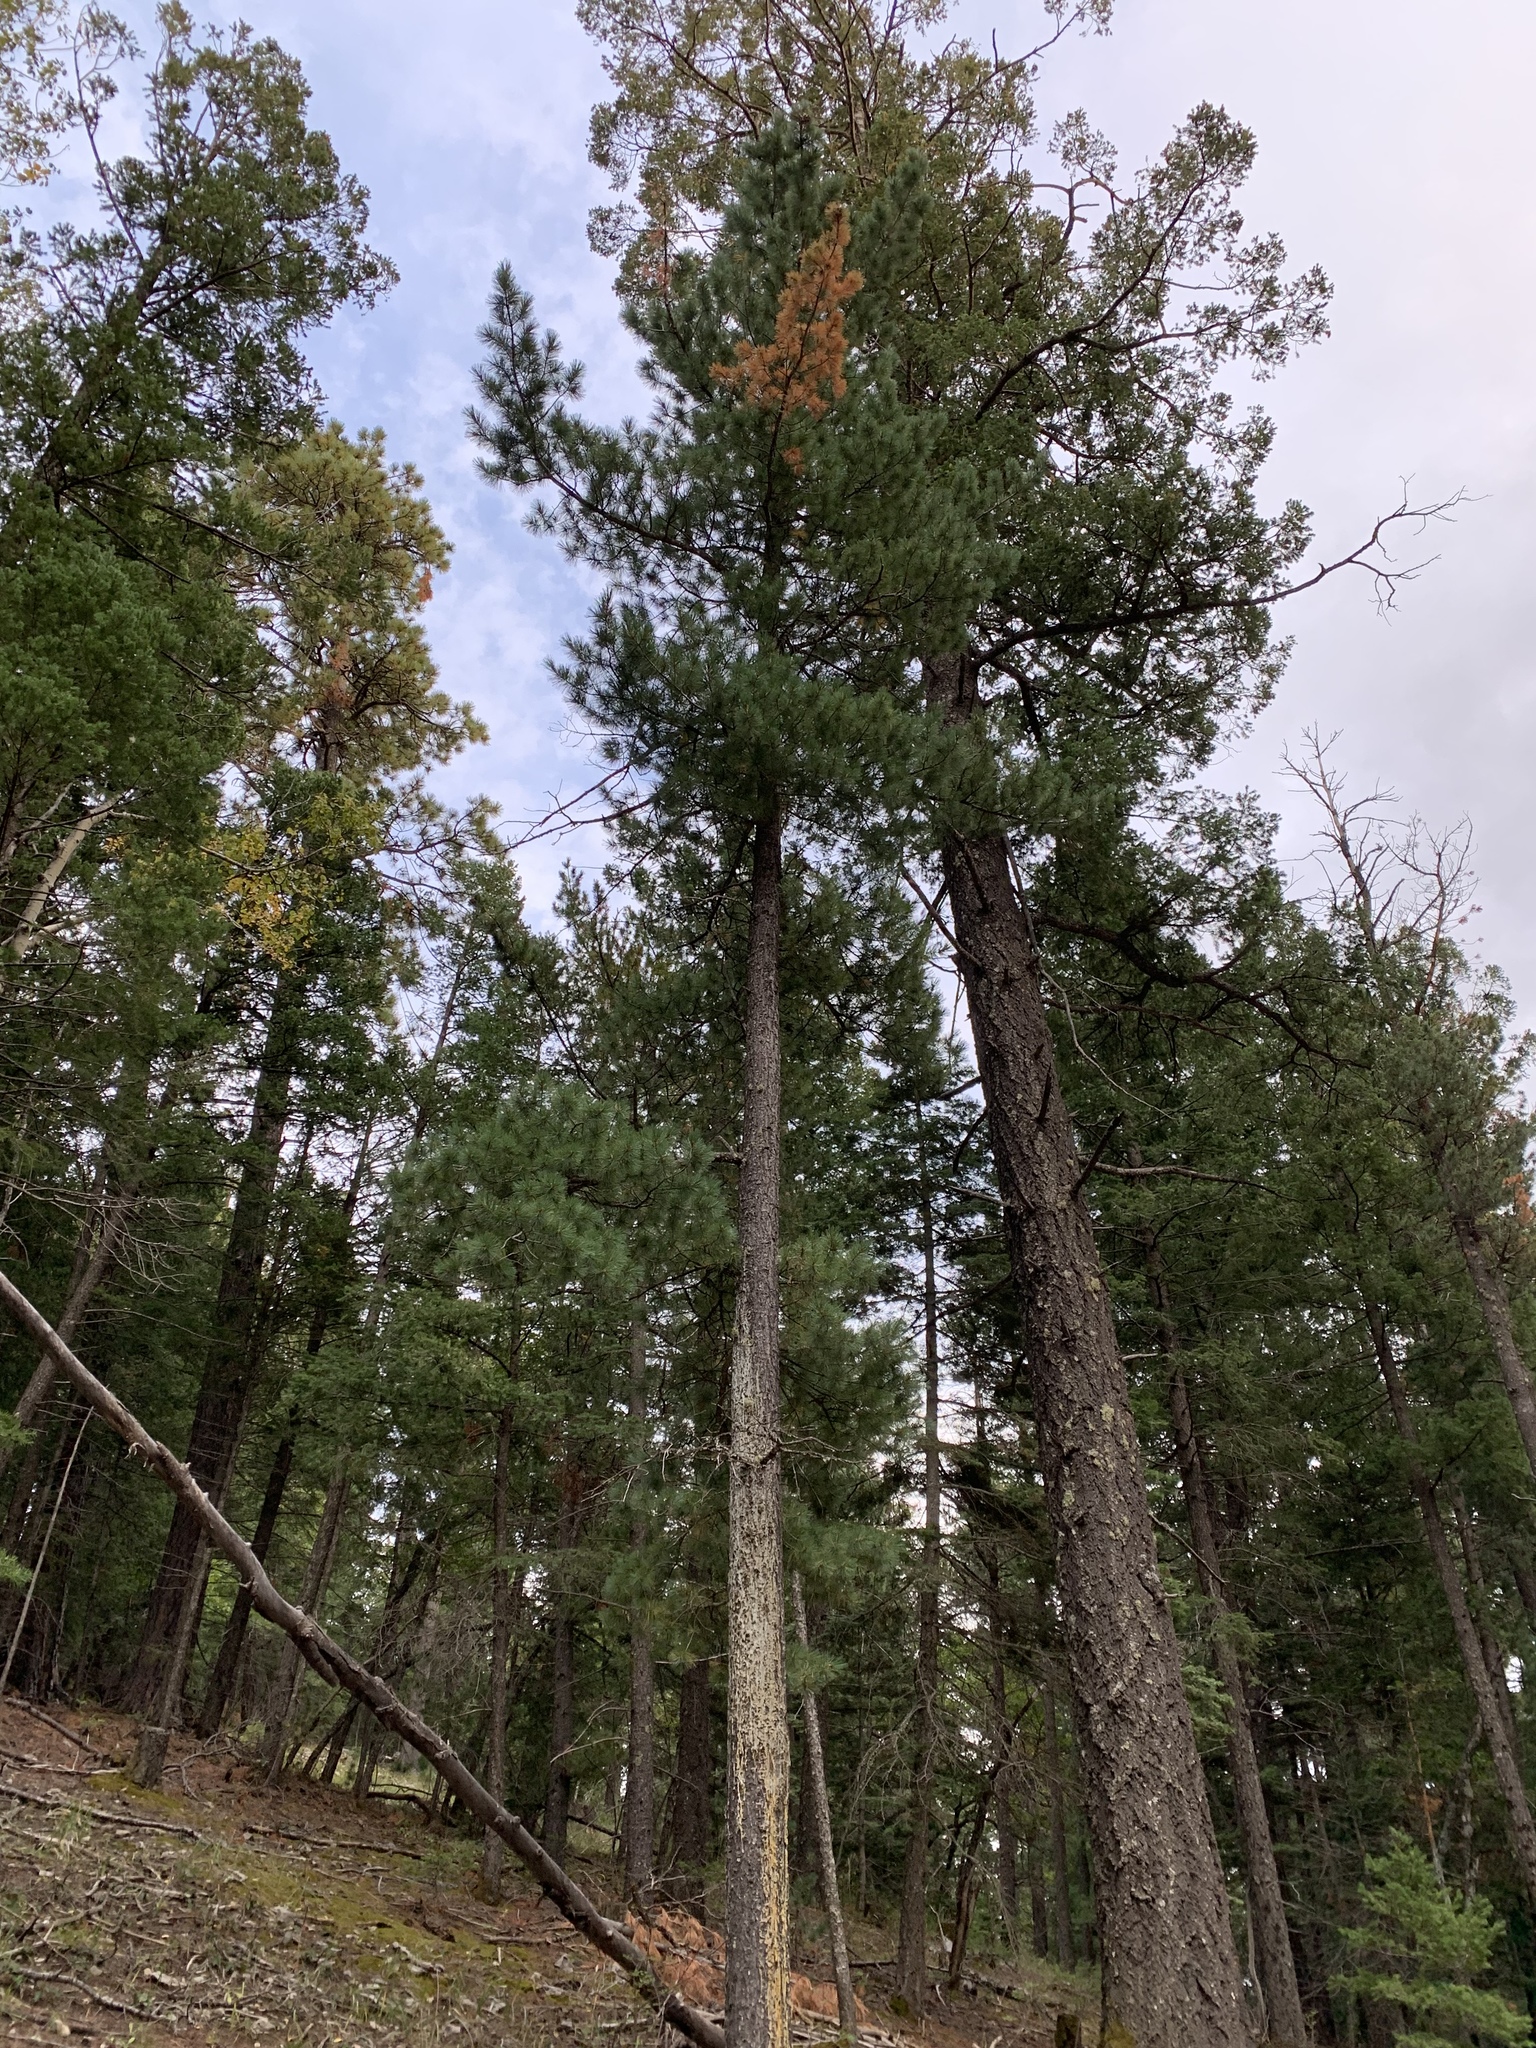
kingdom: Plantae
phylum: Tracheophyta
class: Pinopsida
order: Pinales
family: Pinaceae
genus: Pinus
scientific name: Pinus strobiformis
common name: Southwestern white pine
